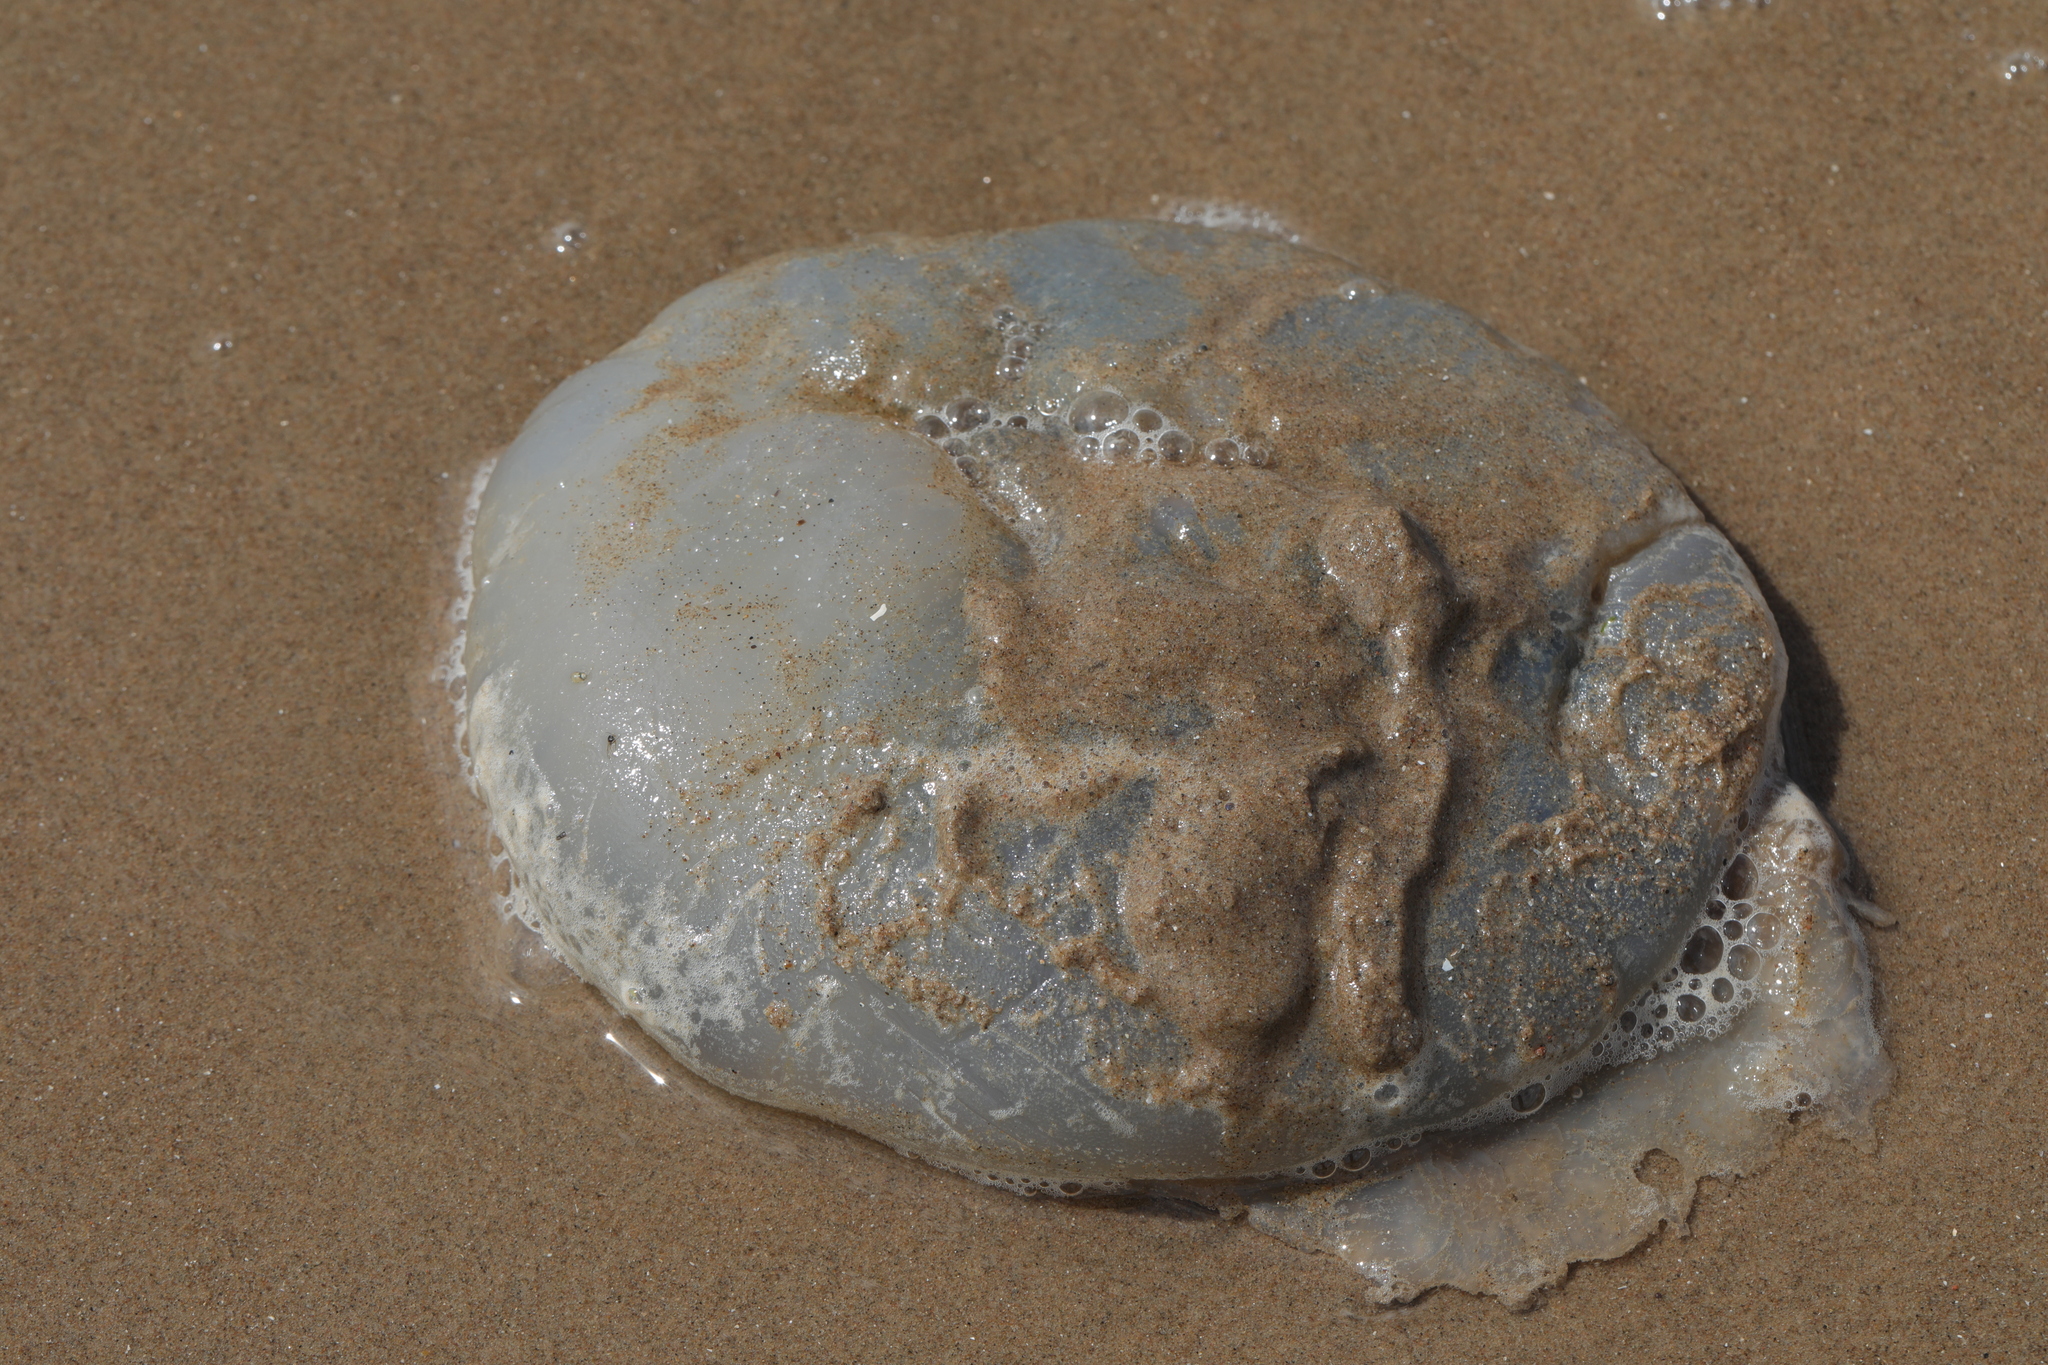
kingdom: Animalia
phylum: Cnidaria
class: Scyphozoa
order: Rhizostomeae
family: Rhizostomatidae
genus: Rhizostoma
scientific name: Rhizostoma octopus
